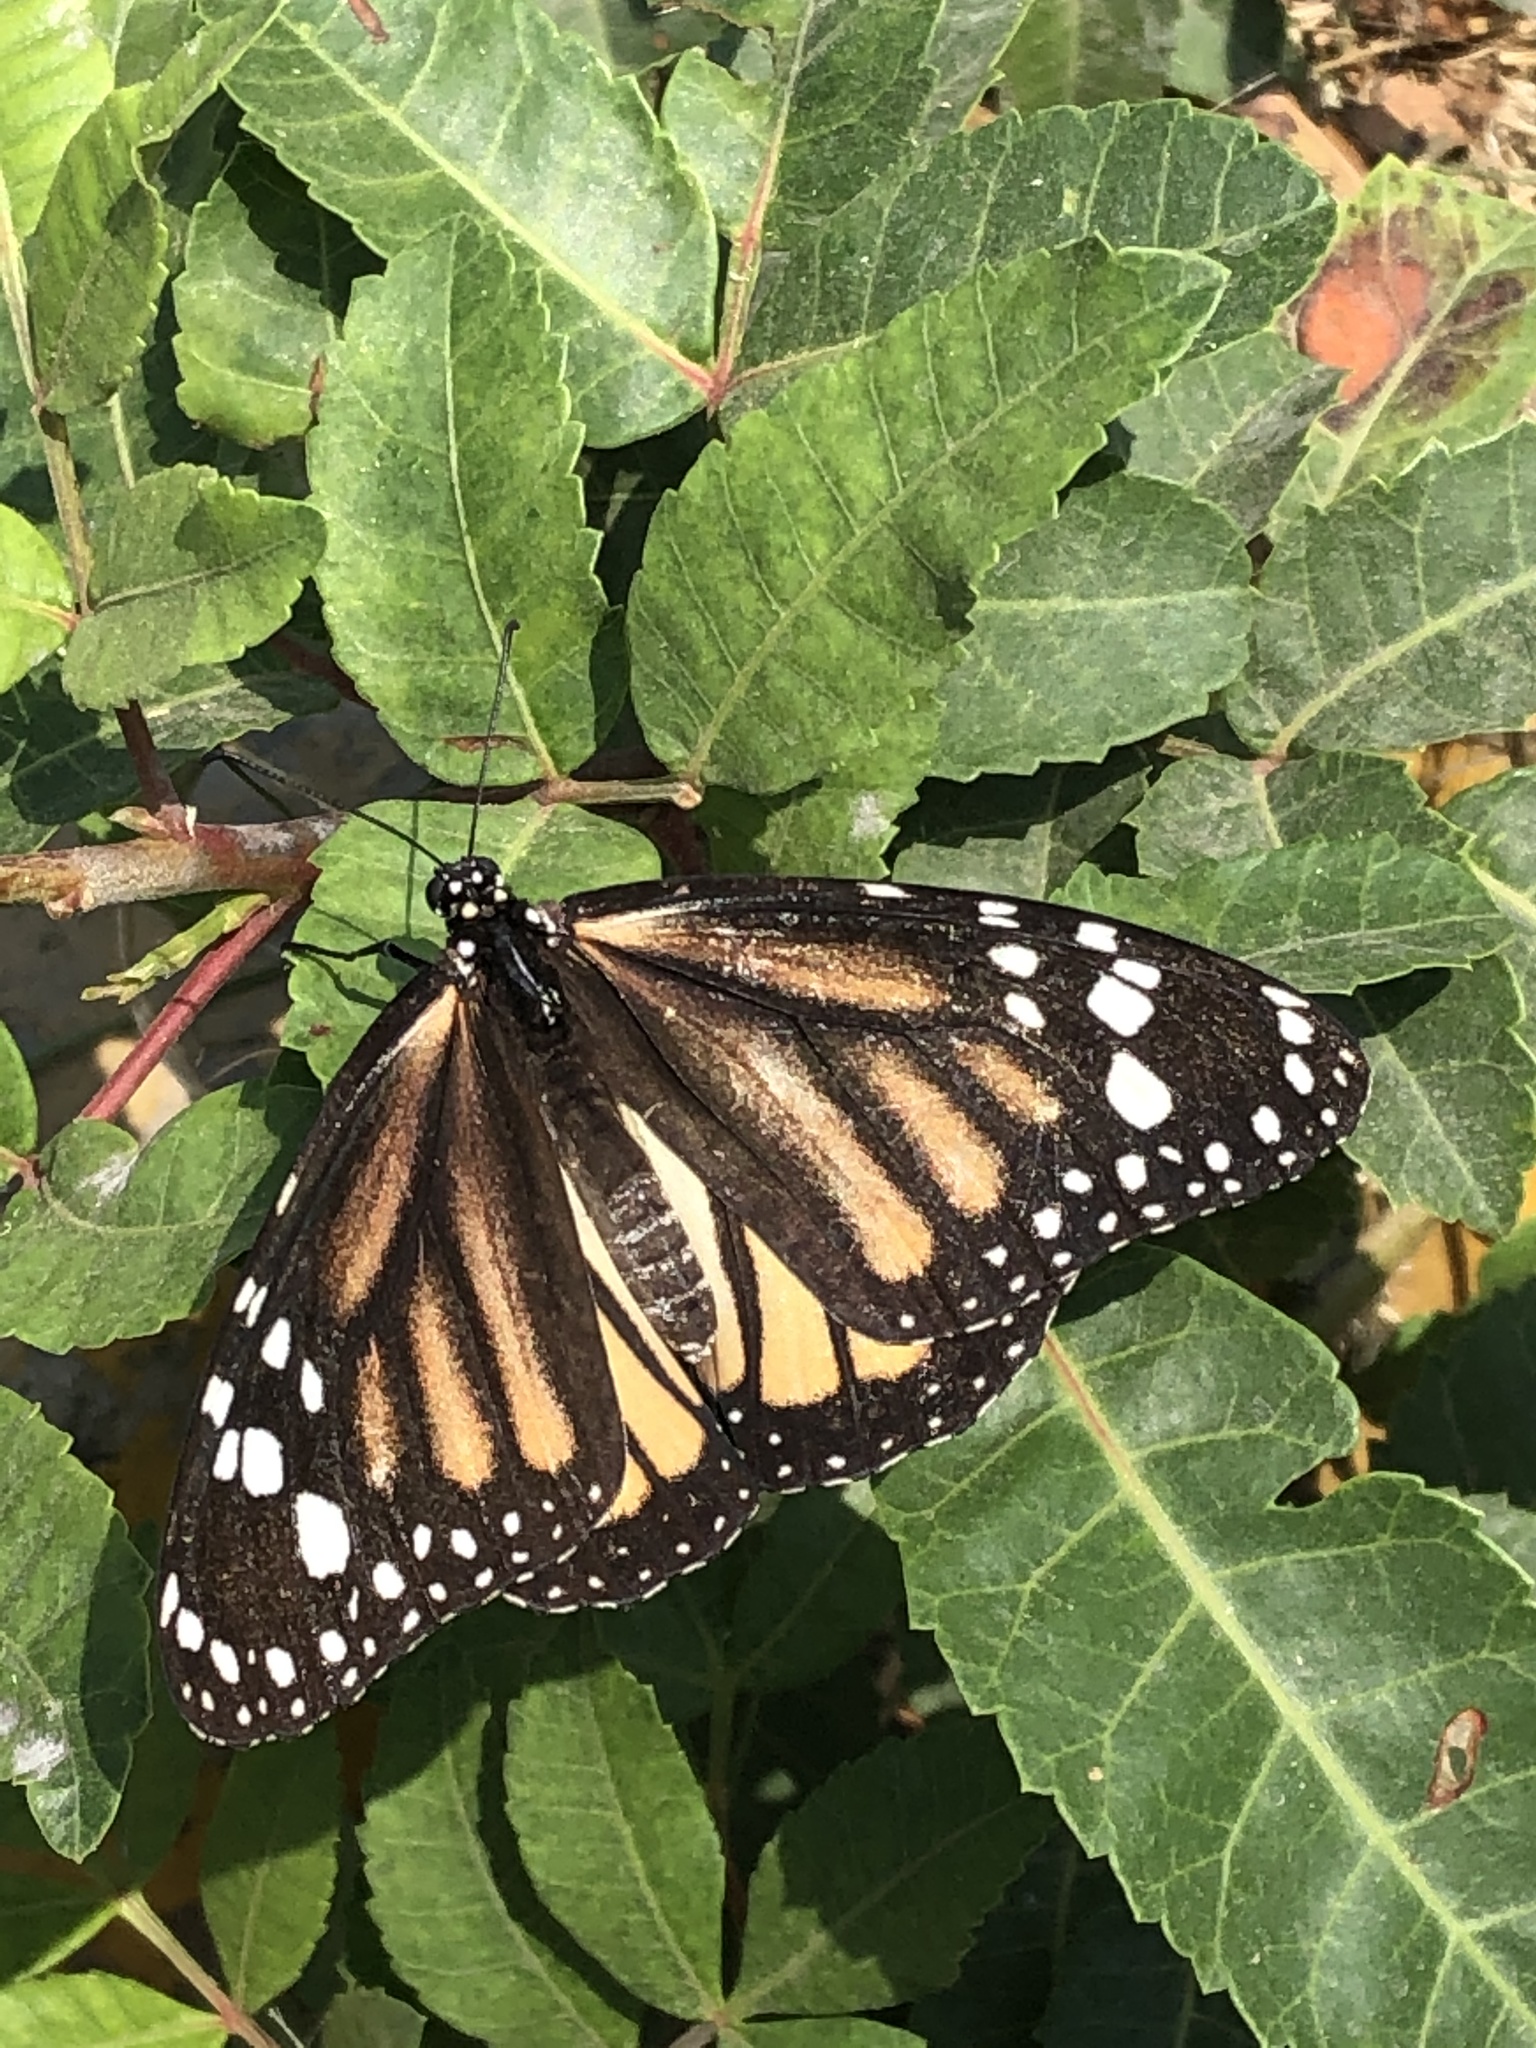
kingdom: Animalia
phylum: Arthropoda
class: Insecta
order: Lepidoptera
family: Nymphalidae
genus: Danaus
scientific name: Danaus plexippus
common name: Monarch
